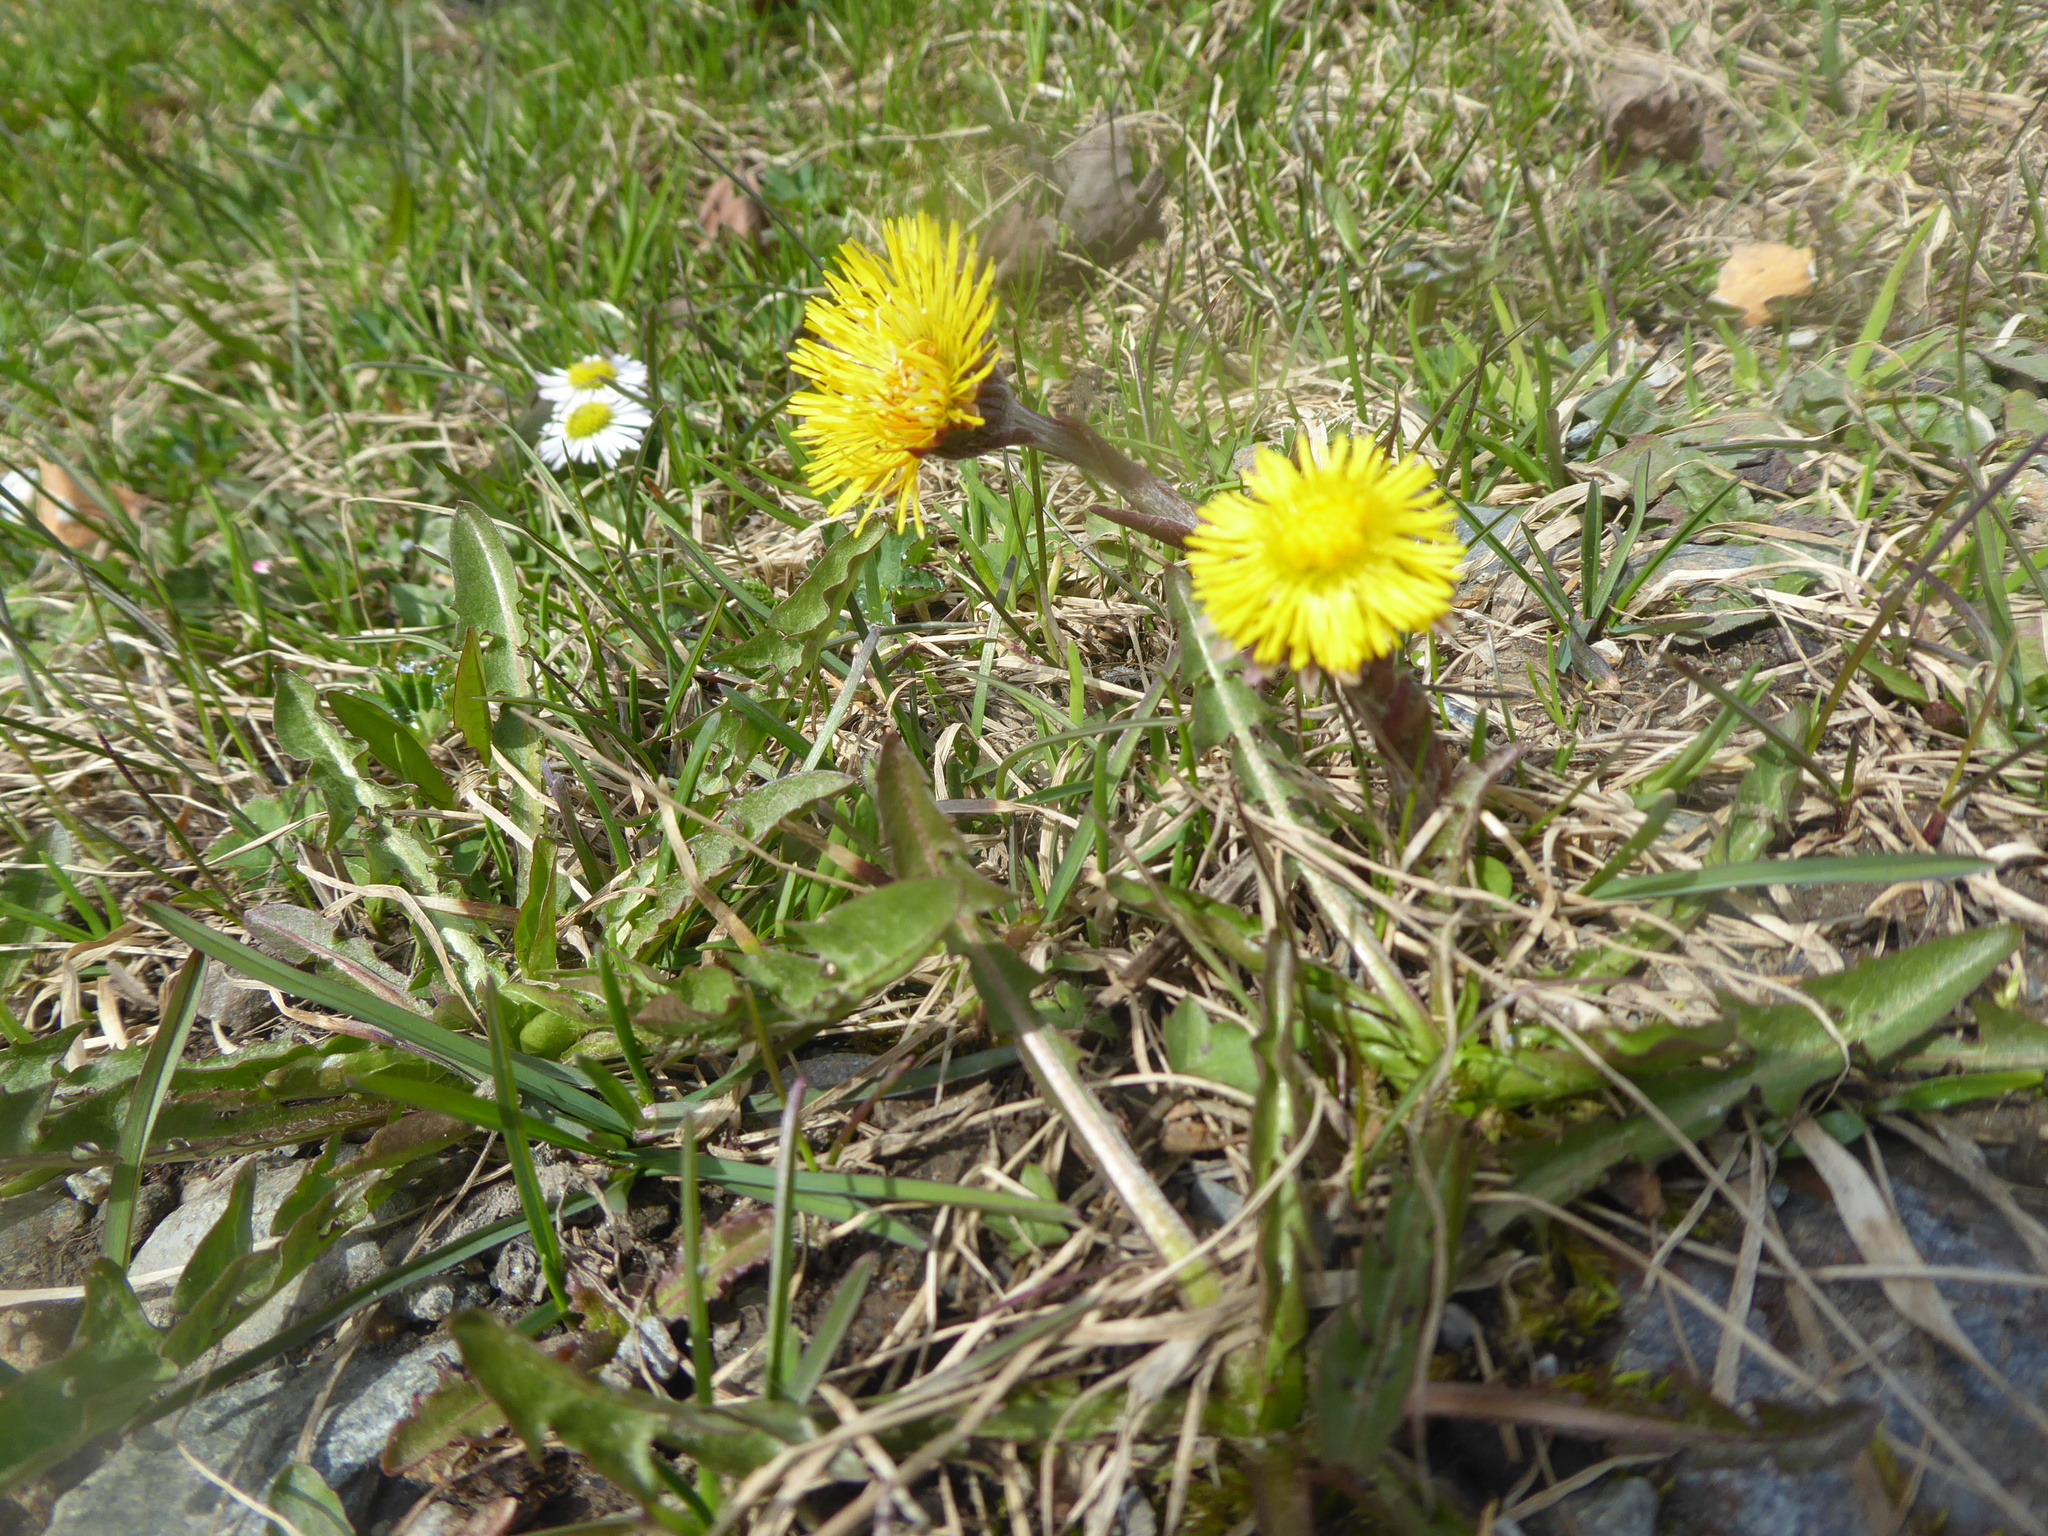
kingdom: Plantae
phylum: Tracheophyta
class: Magnoliopsida
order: Asterales
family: Asteraceae
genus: Tussilago
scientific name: Tussilago farfara
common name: Coltsfoot
